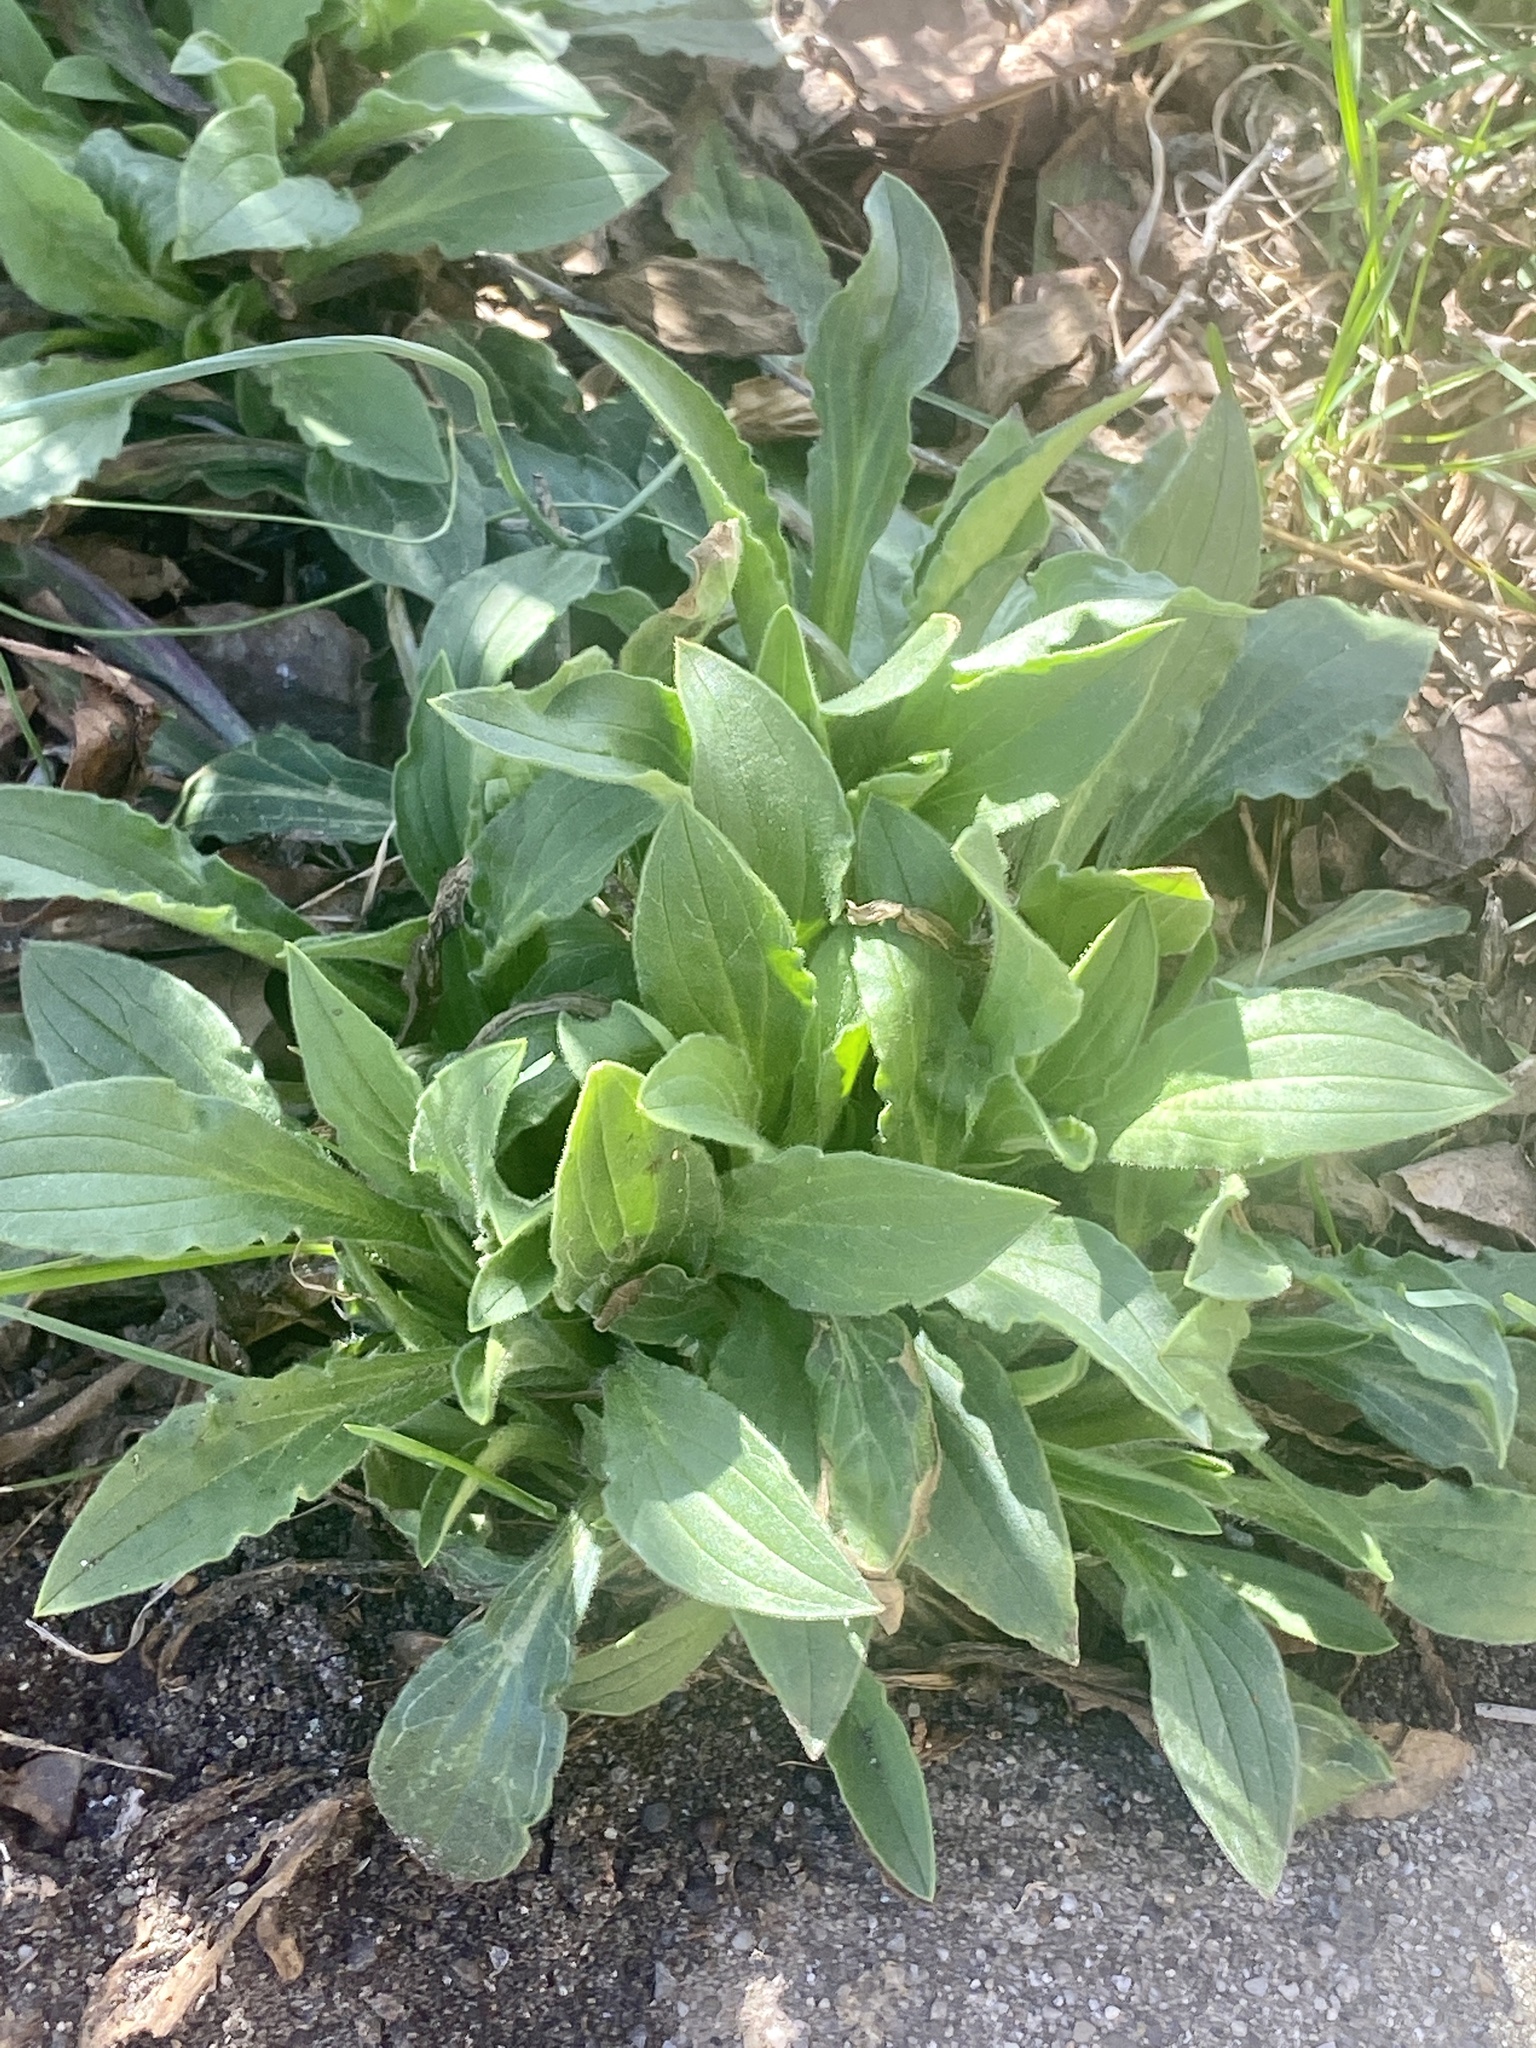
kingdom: Plantae
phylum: Tracheophyta
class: Magnoliopsida
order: Caryophyllales
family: Caryophyllaceae
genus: Silene
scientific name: Silene latifolia
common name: White campion
